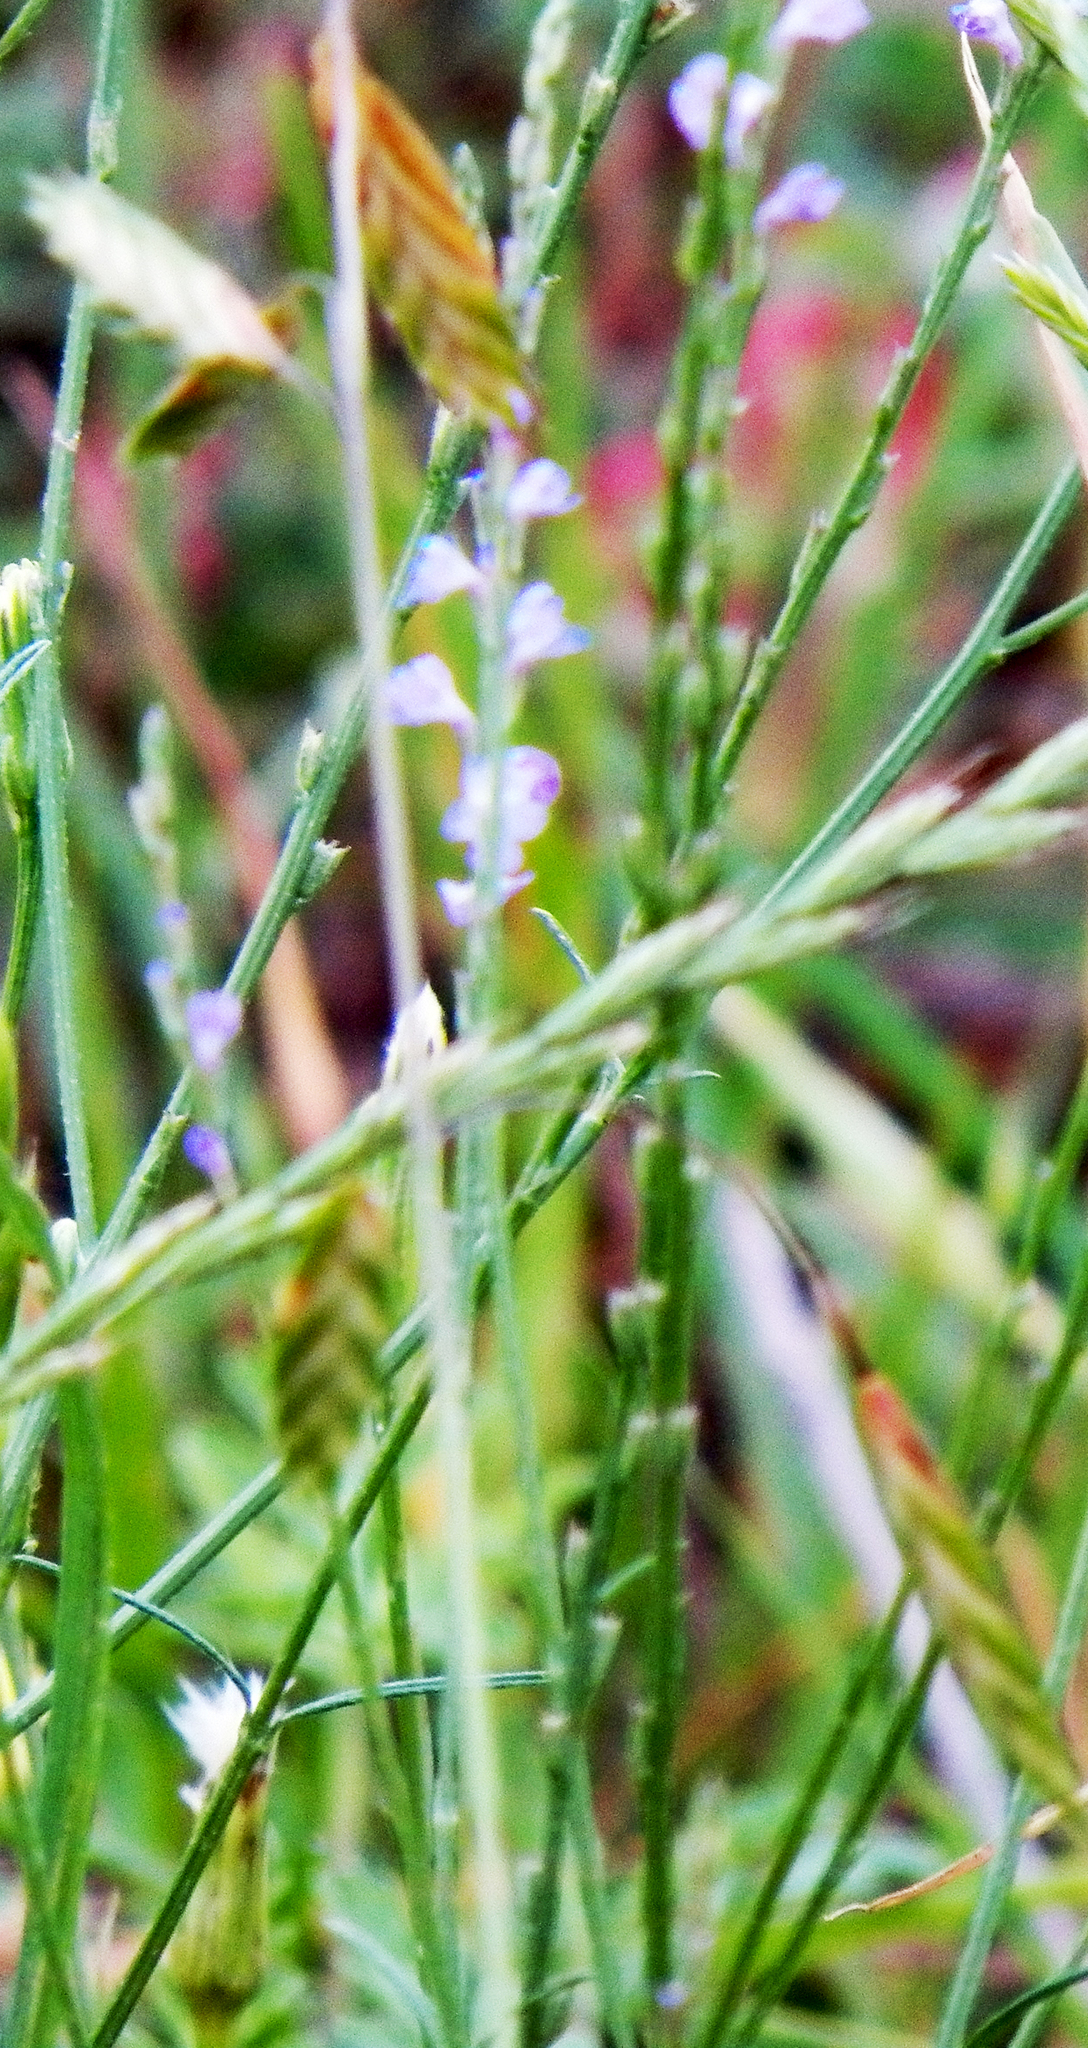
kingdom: Plantae
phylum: Tracheophyta
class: Liliopsida
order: Poales
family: Poaceae
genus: Bromus
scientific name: Bromus catharticus
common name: Rescuegrass
